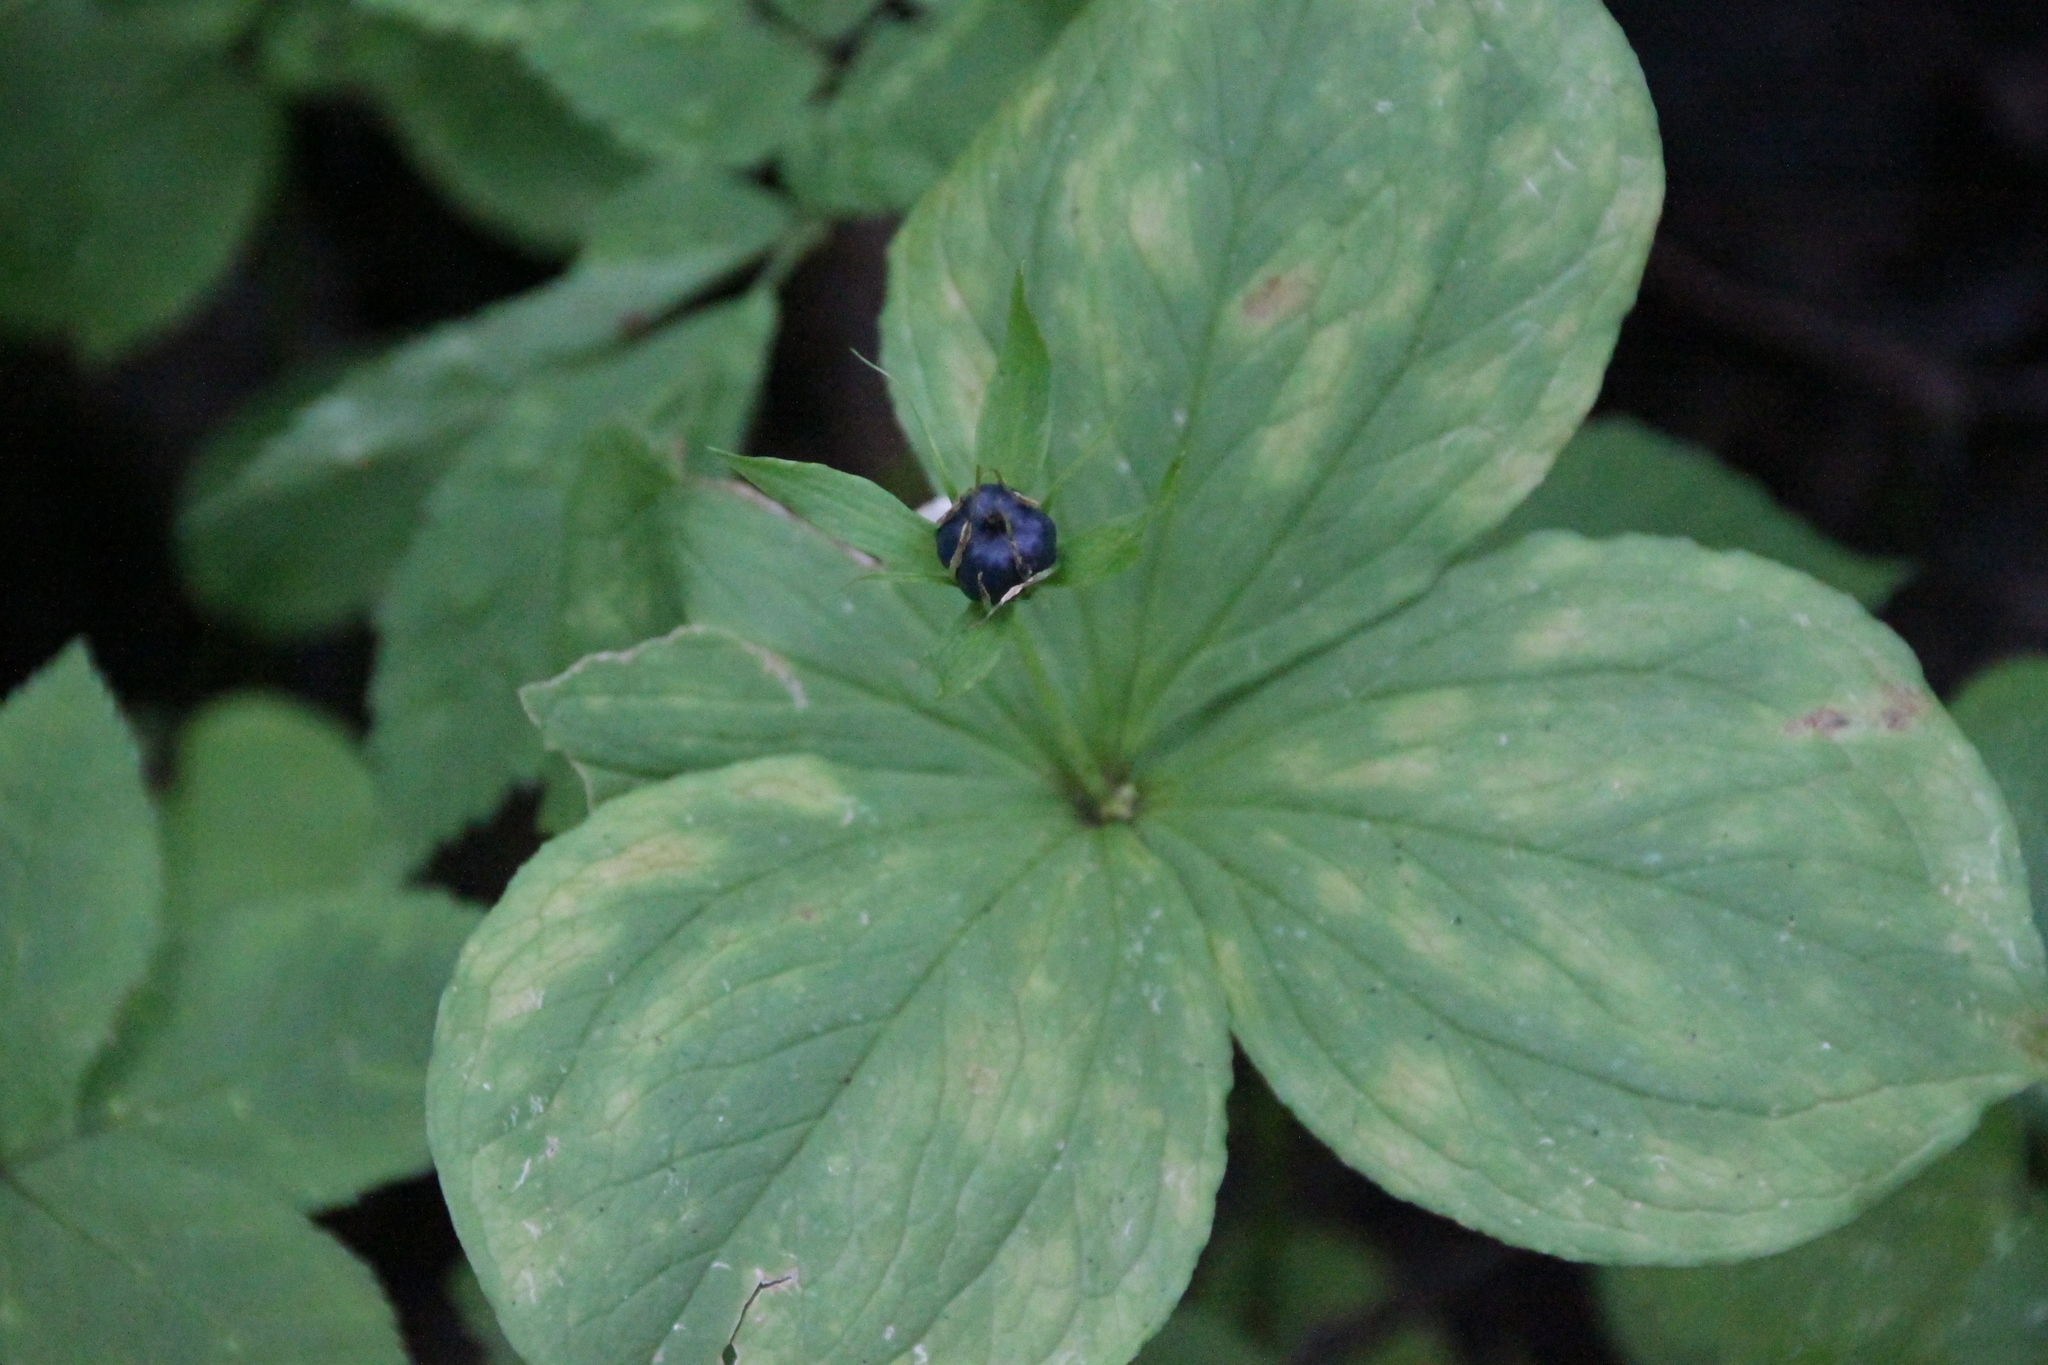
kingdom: Plantae
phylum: Tracheophyta
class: Liliopsida
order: Liliales
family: Melanthiaceae
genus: Paris
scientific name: Paris quadrifolia
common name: Herb-paris
